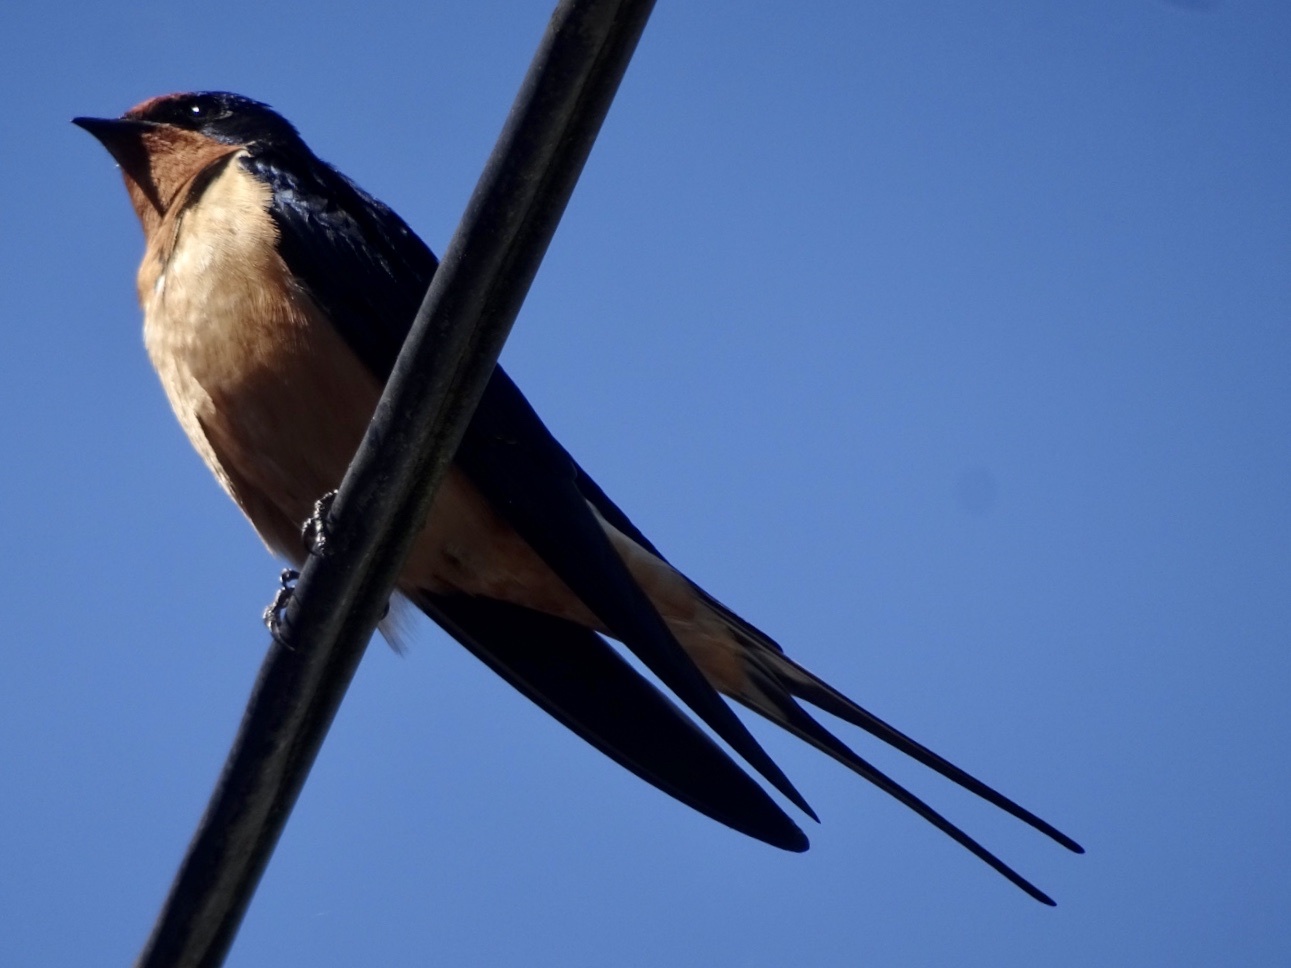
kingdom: Animalia
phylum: Chordata
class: Aves
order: Passeriformes
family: Hirundinidae
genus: Hirundo
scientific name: Hirundo rustica
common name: Barn swallow
